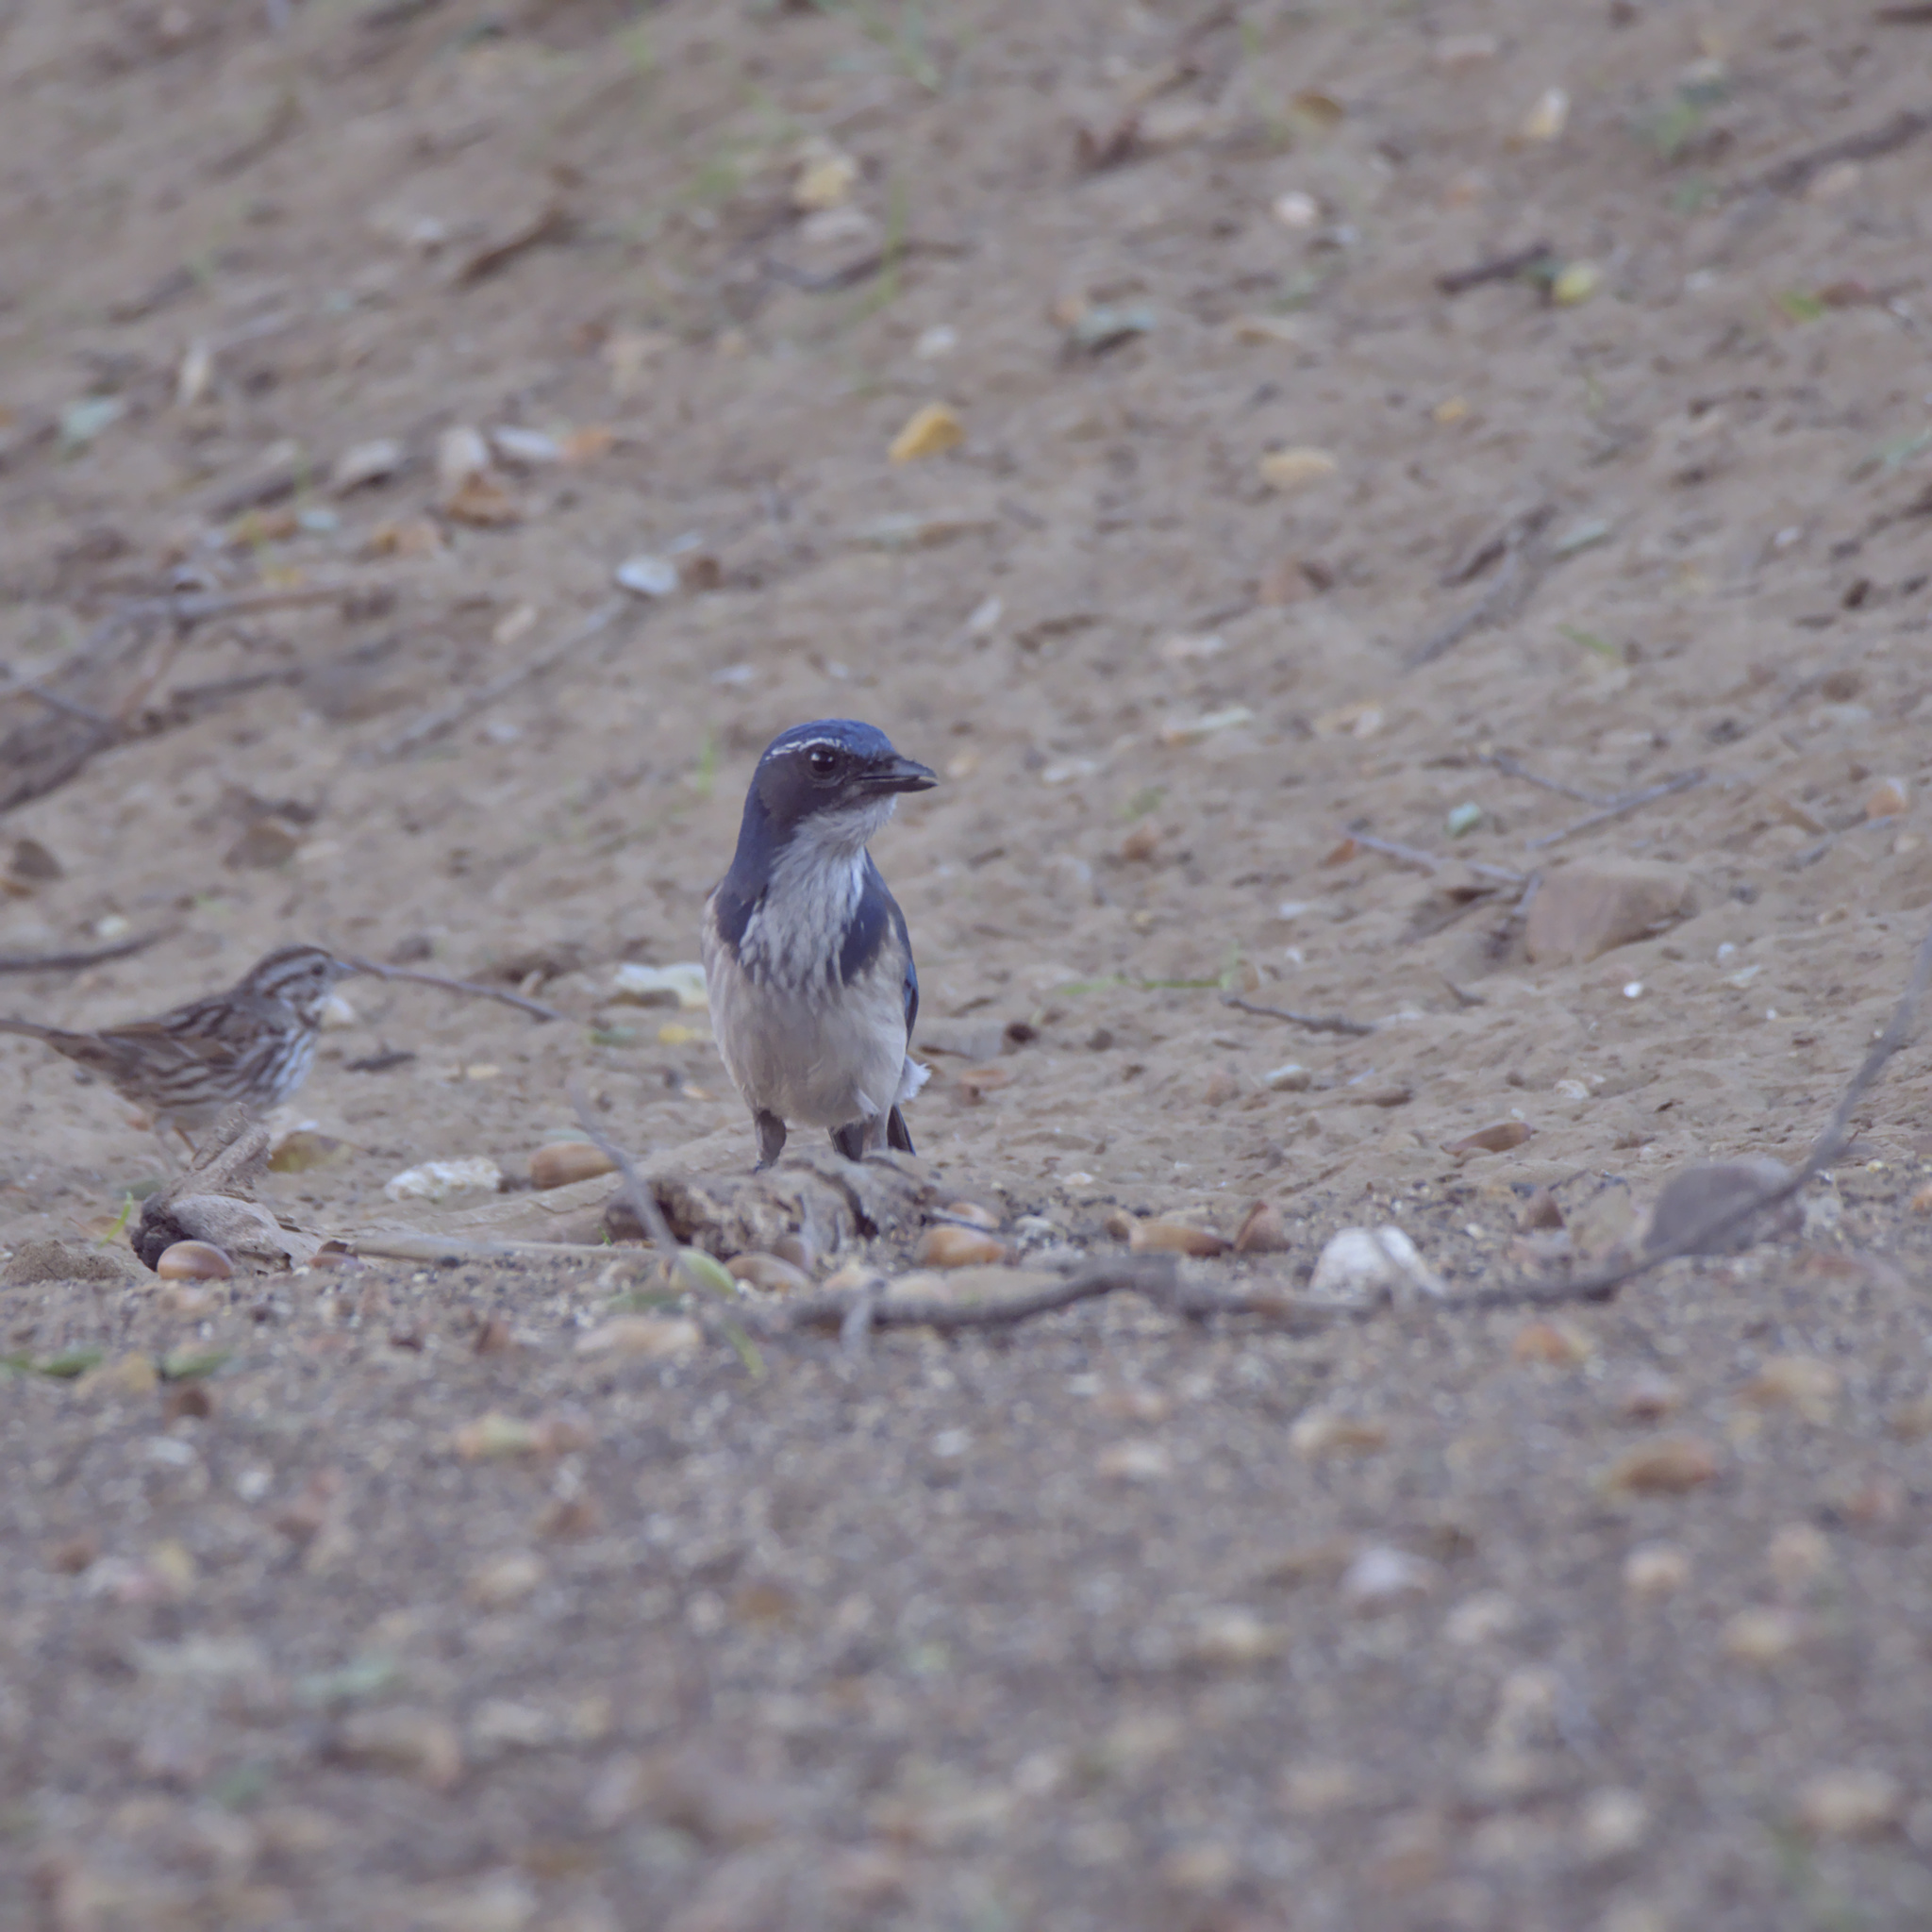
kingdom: Animalia
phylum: Chordata
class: Aves
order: Passeriformes
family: Corvidae
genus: Aphelocoma
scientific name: Aphelocoma californica
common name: California scrub-jay
